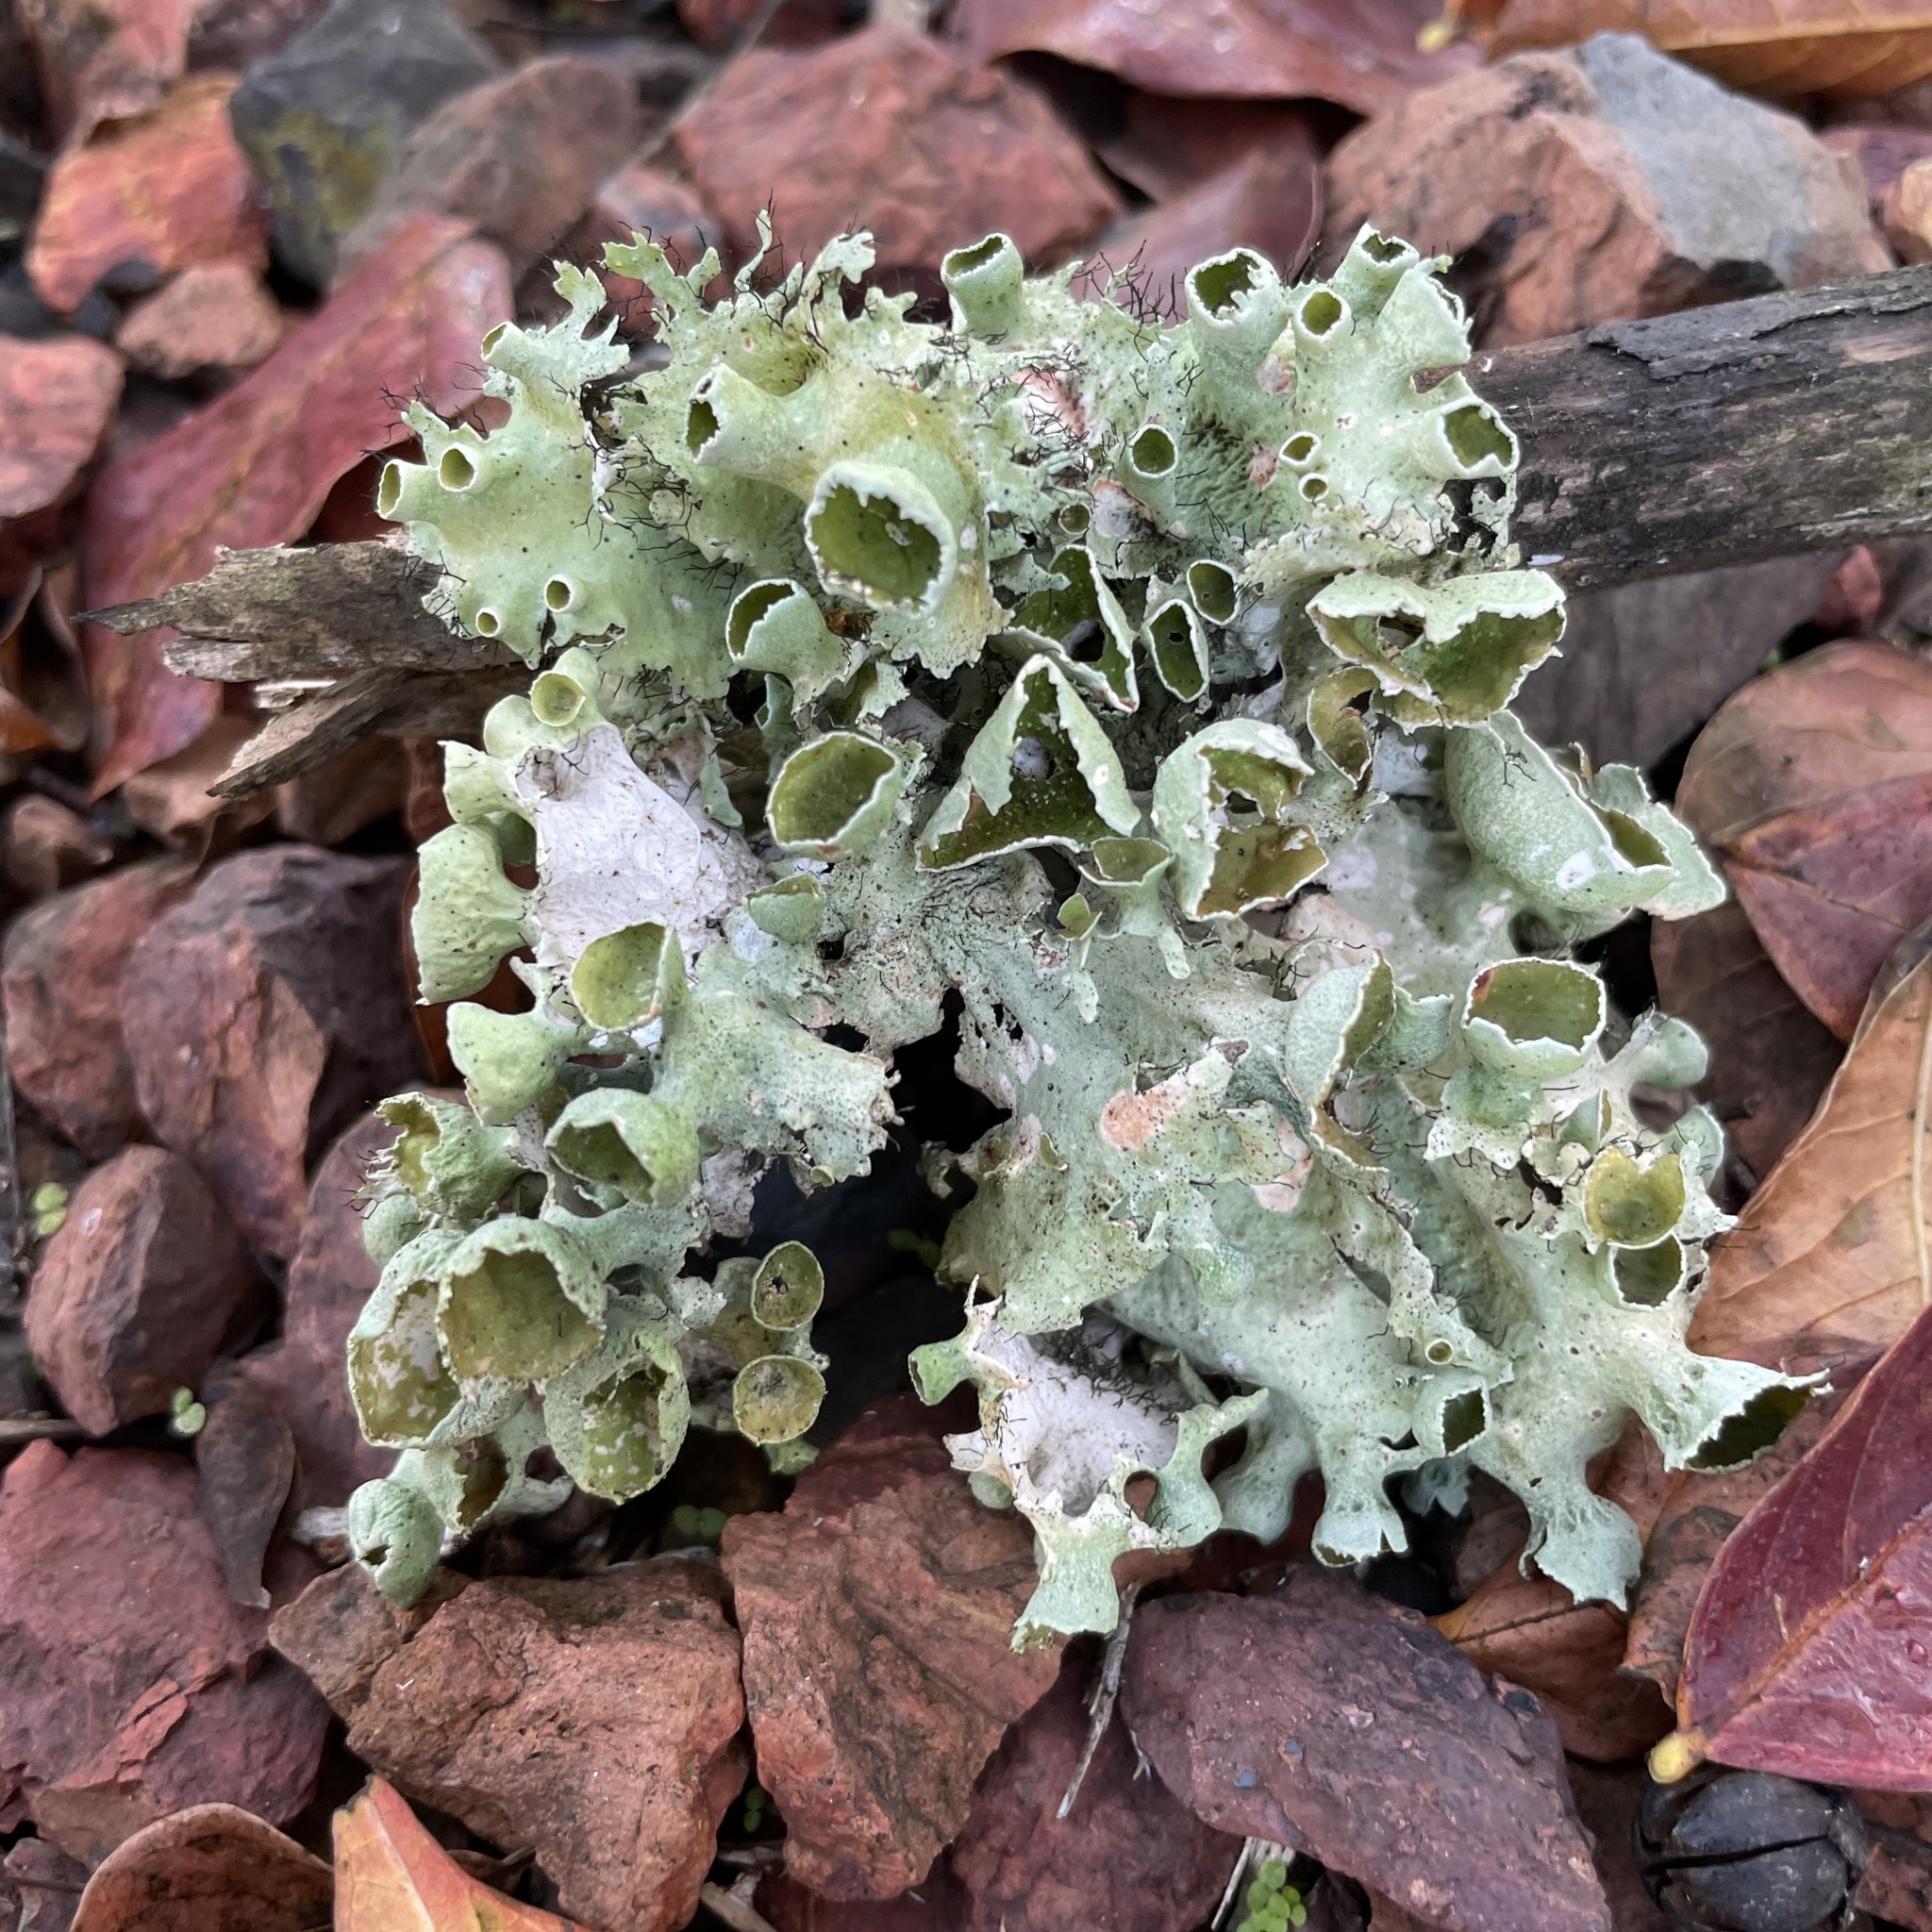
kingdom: Fungi
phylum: Ascomycota
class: Lecanoromycetes
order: Lecanorales
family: Parmeliaceae
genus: Parmotrema
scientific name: Parmotrema perforatum
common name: Perforated ruffle lichen
